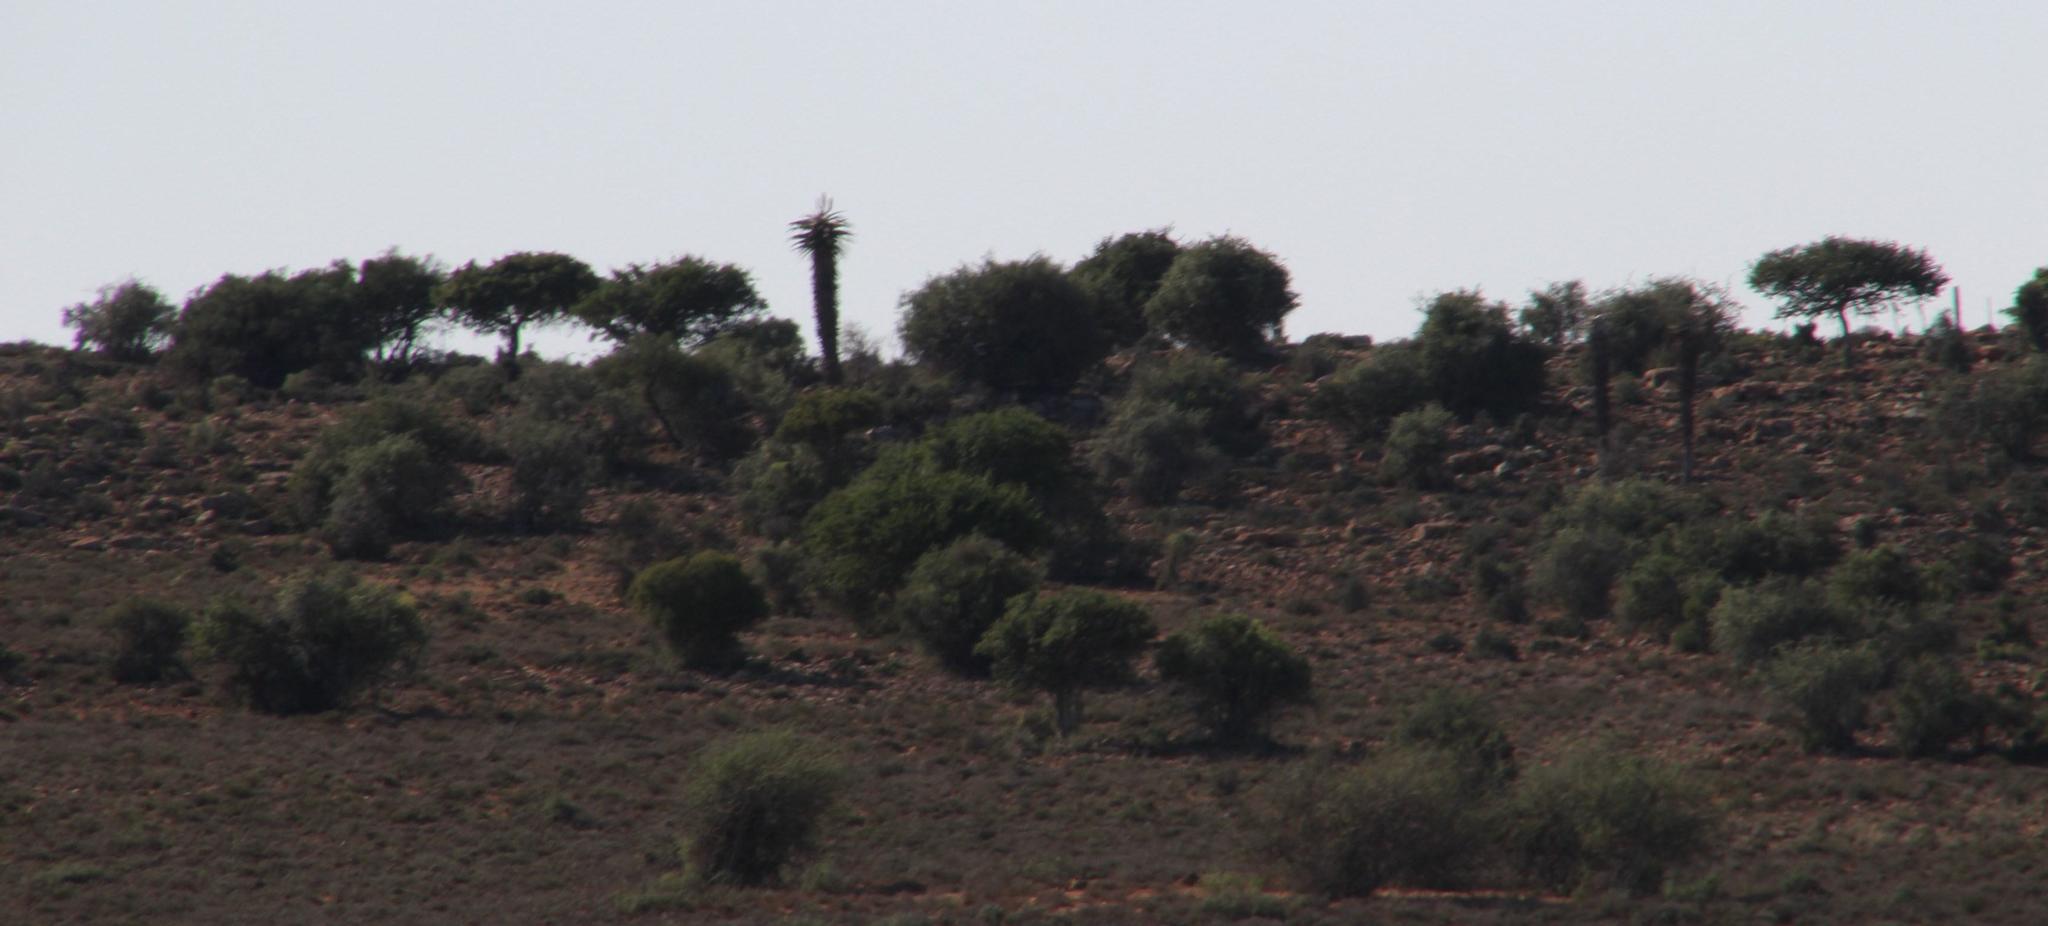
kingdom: Plantae
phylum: Tracheophyta
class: Liliopsida
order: Asparagales
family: Asphodelaceae
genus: Aloe
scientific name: Aloe ferox
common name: Bitter aloe
